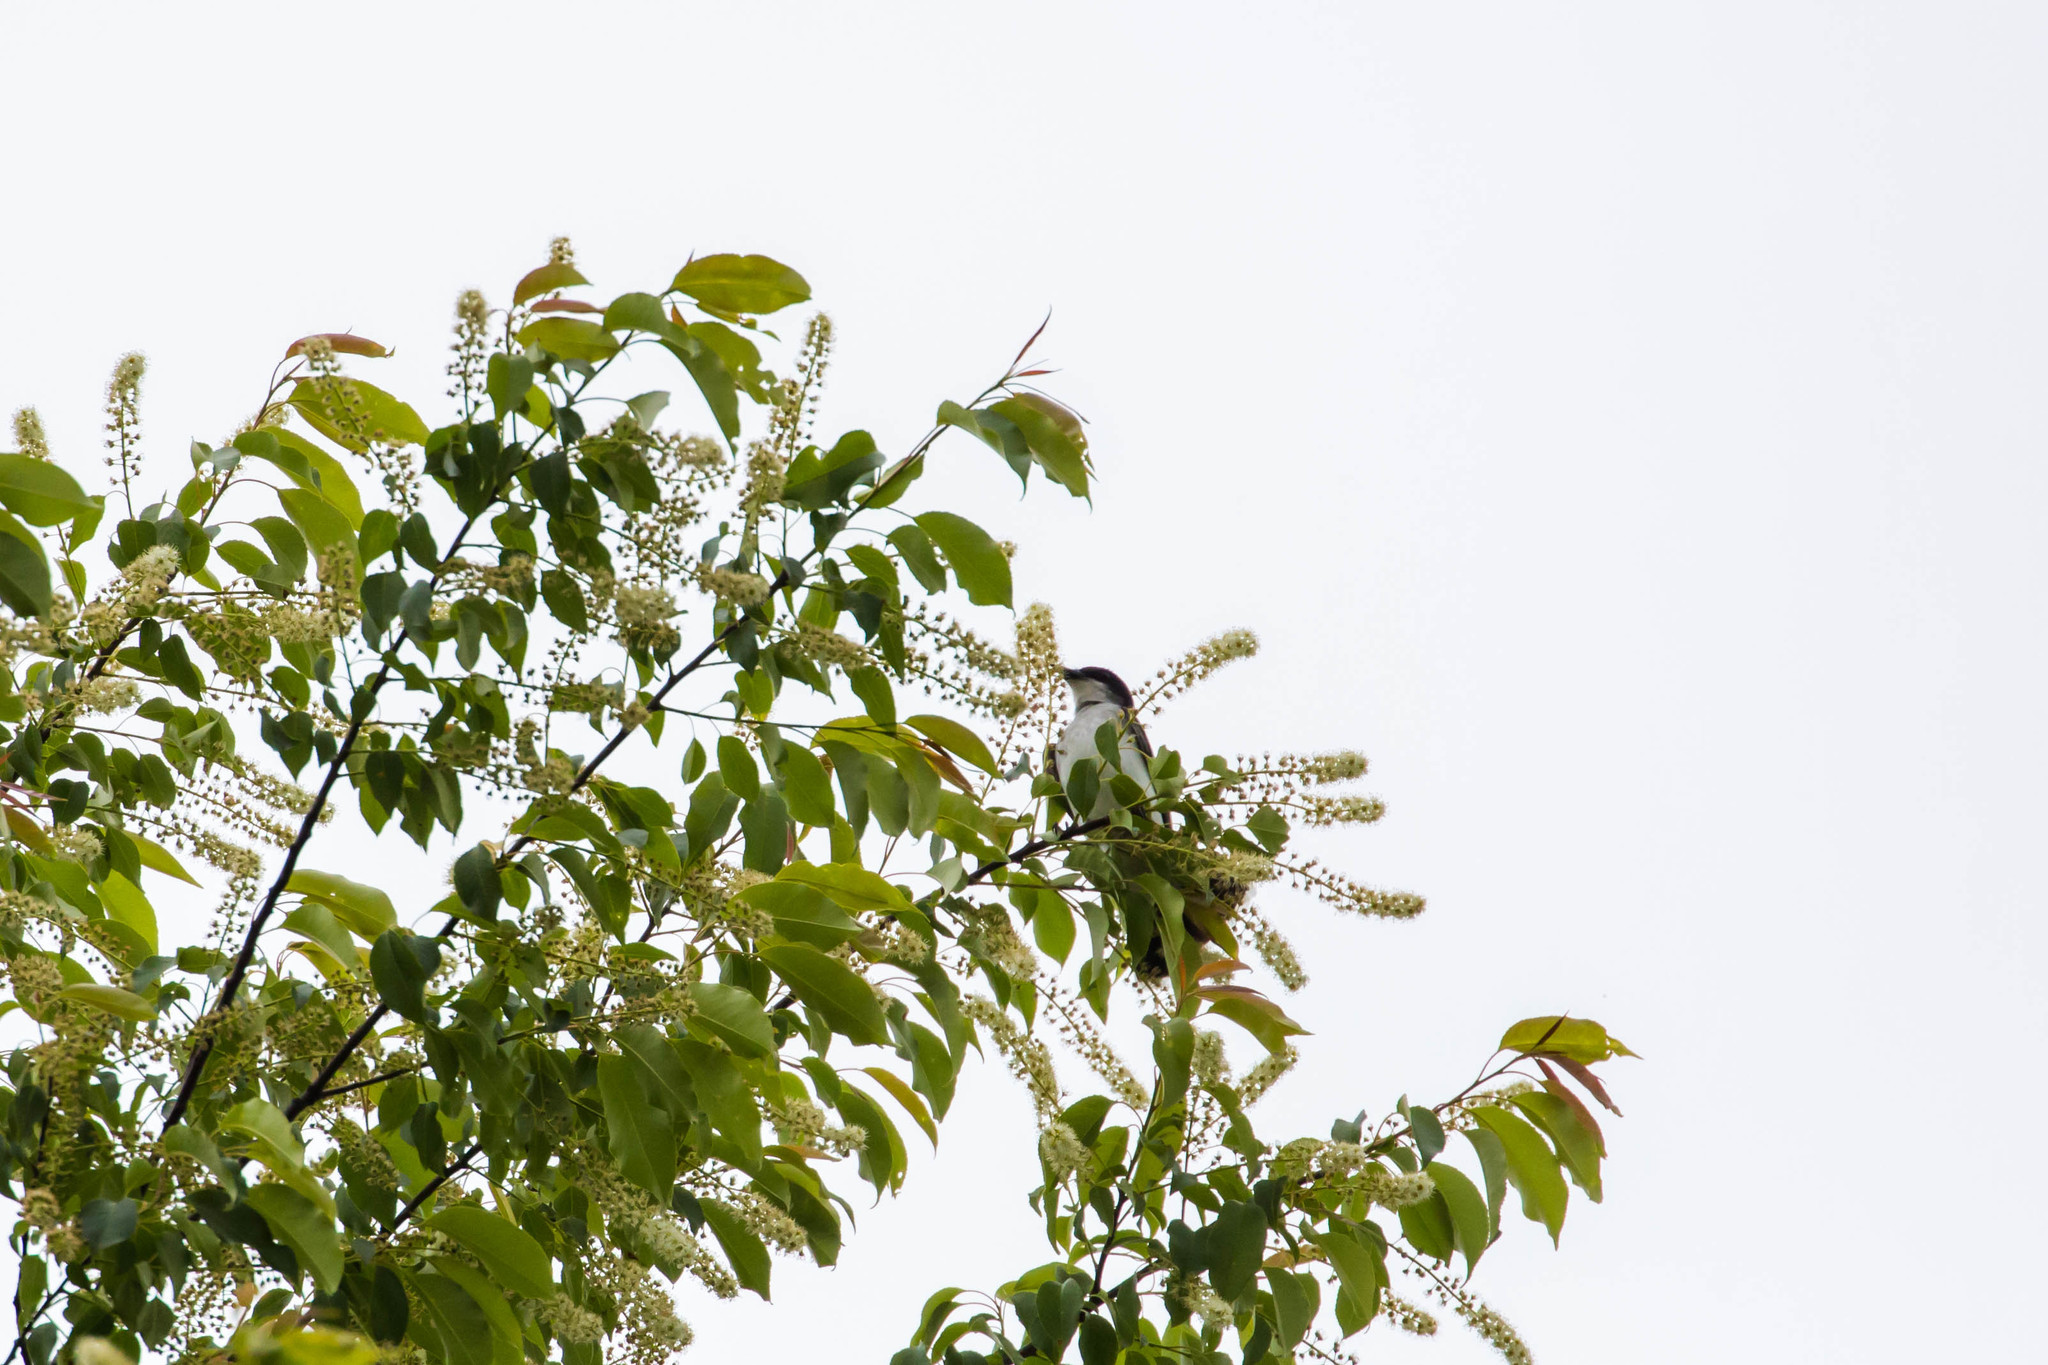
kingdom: Animalia
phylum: Chordata
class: Aves
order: Passeriformes
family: Tyrannidae
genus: Tyrannus
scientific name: Tyrannus tyrannus
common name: Eastern kingbird
